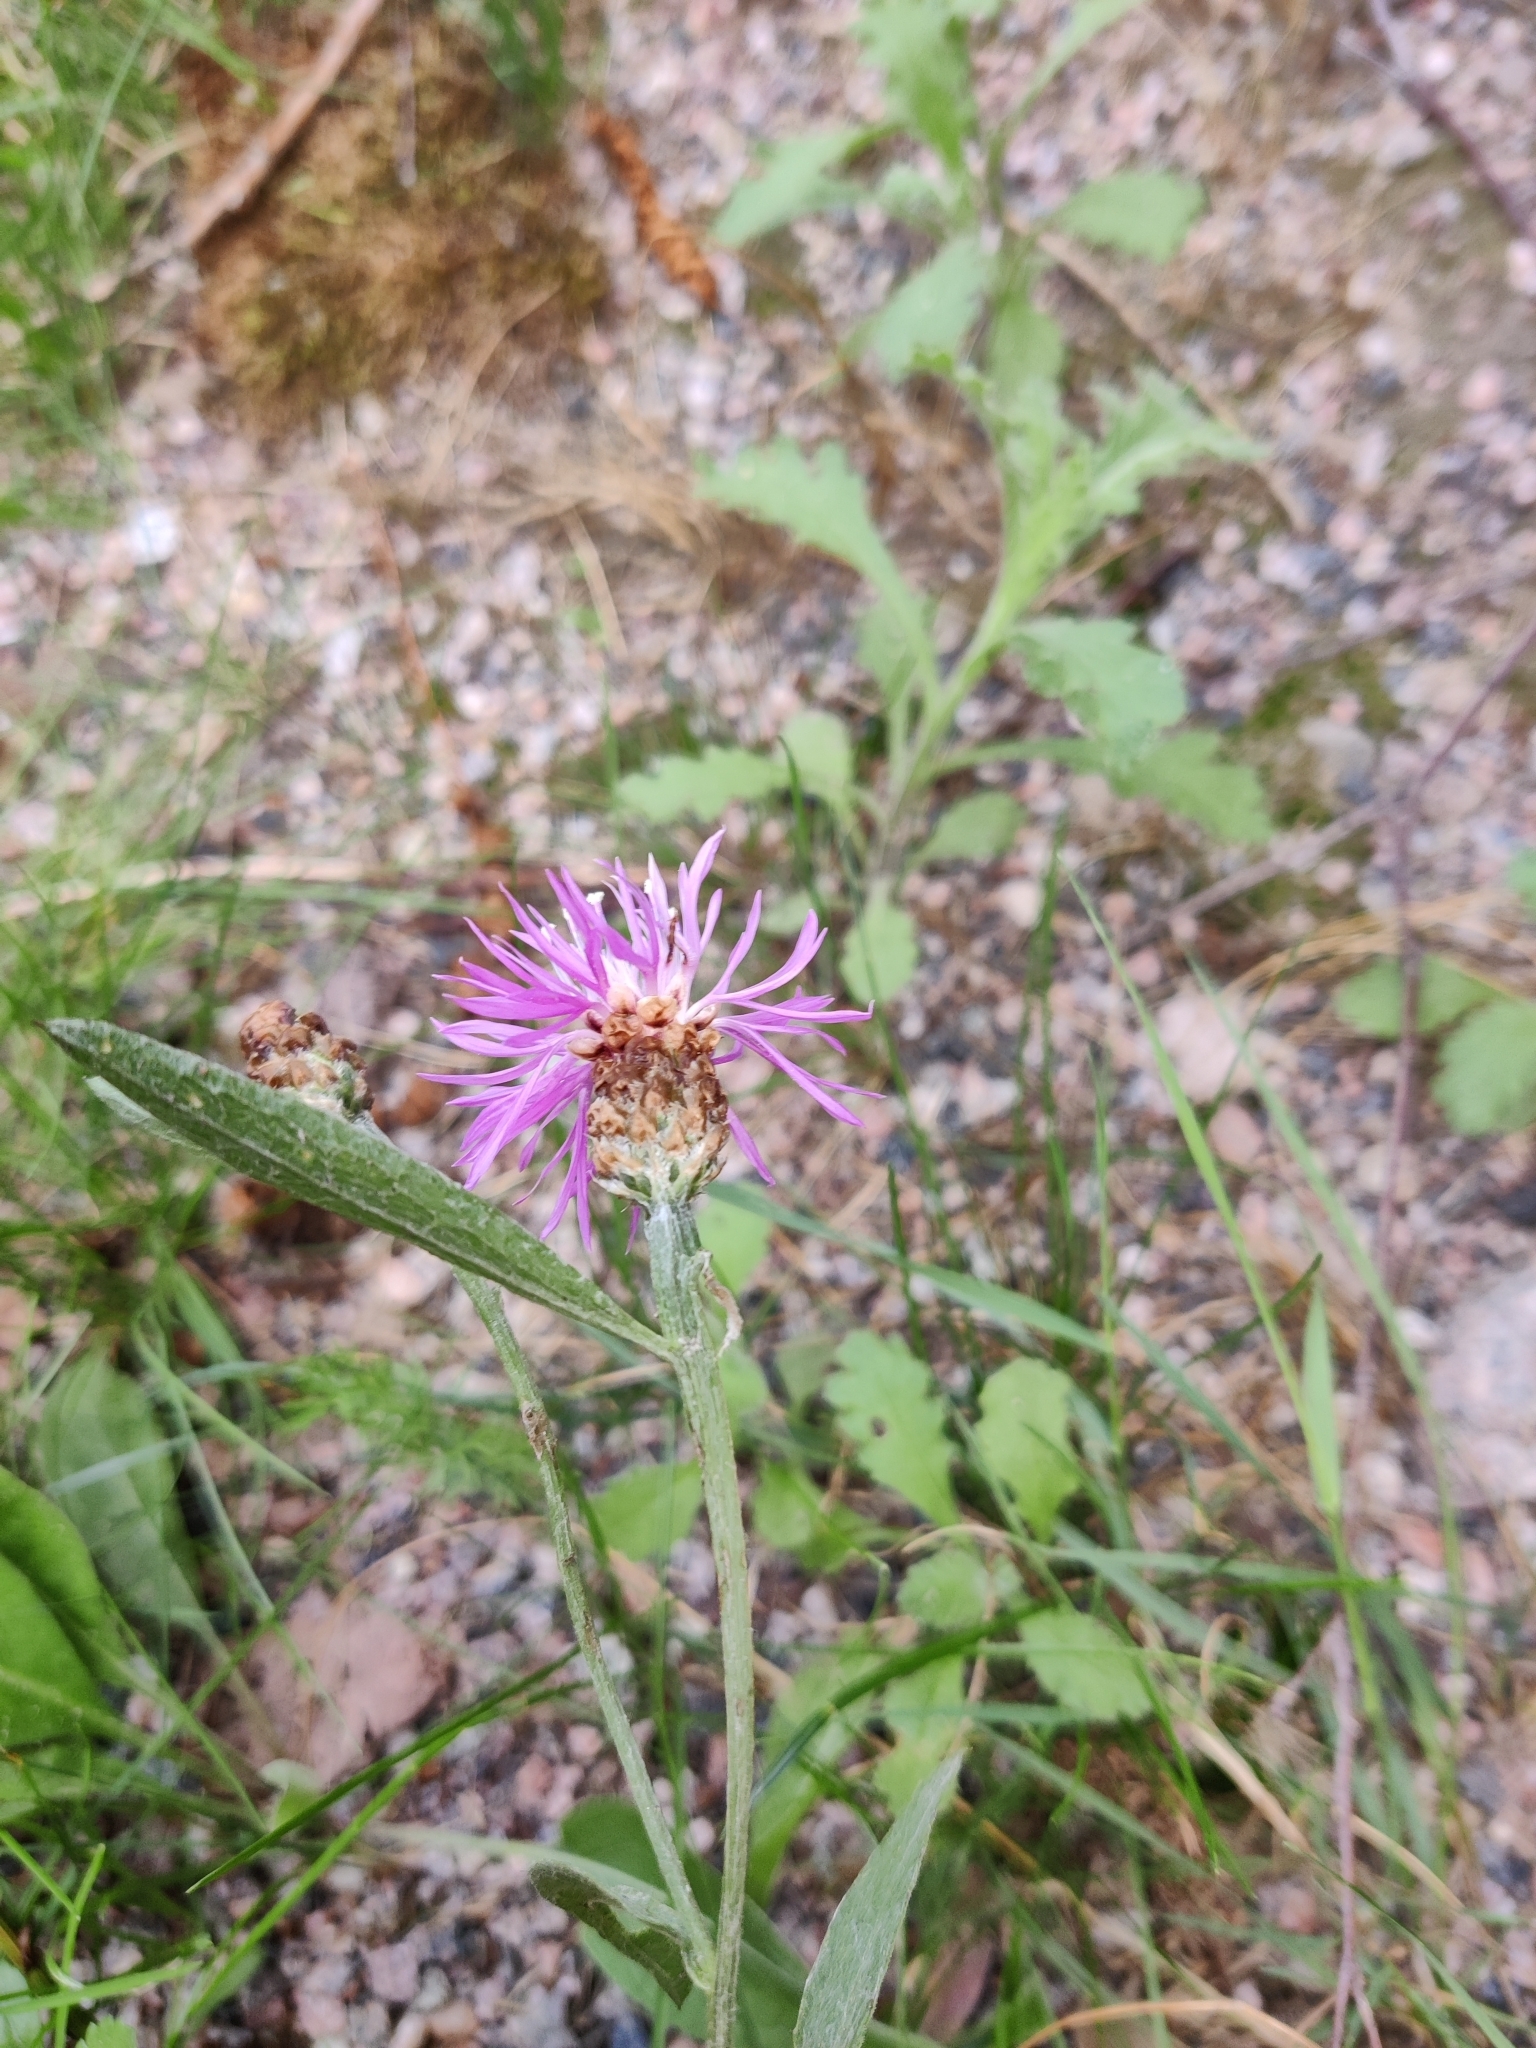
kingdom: Plantae
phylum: Tracheophyta
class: Magnoliopsida
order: Asterales
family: Asteraceae
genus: Centaurea
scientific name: Centaurea jacea
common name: Brown knapweed
